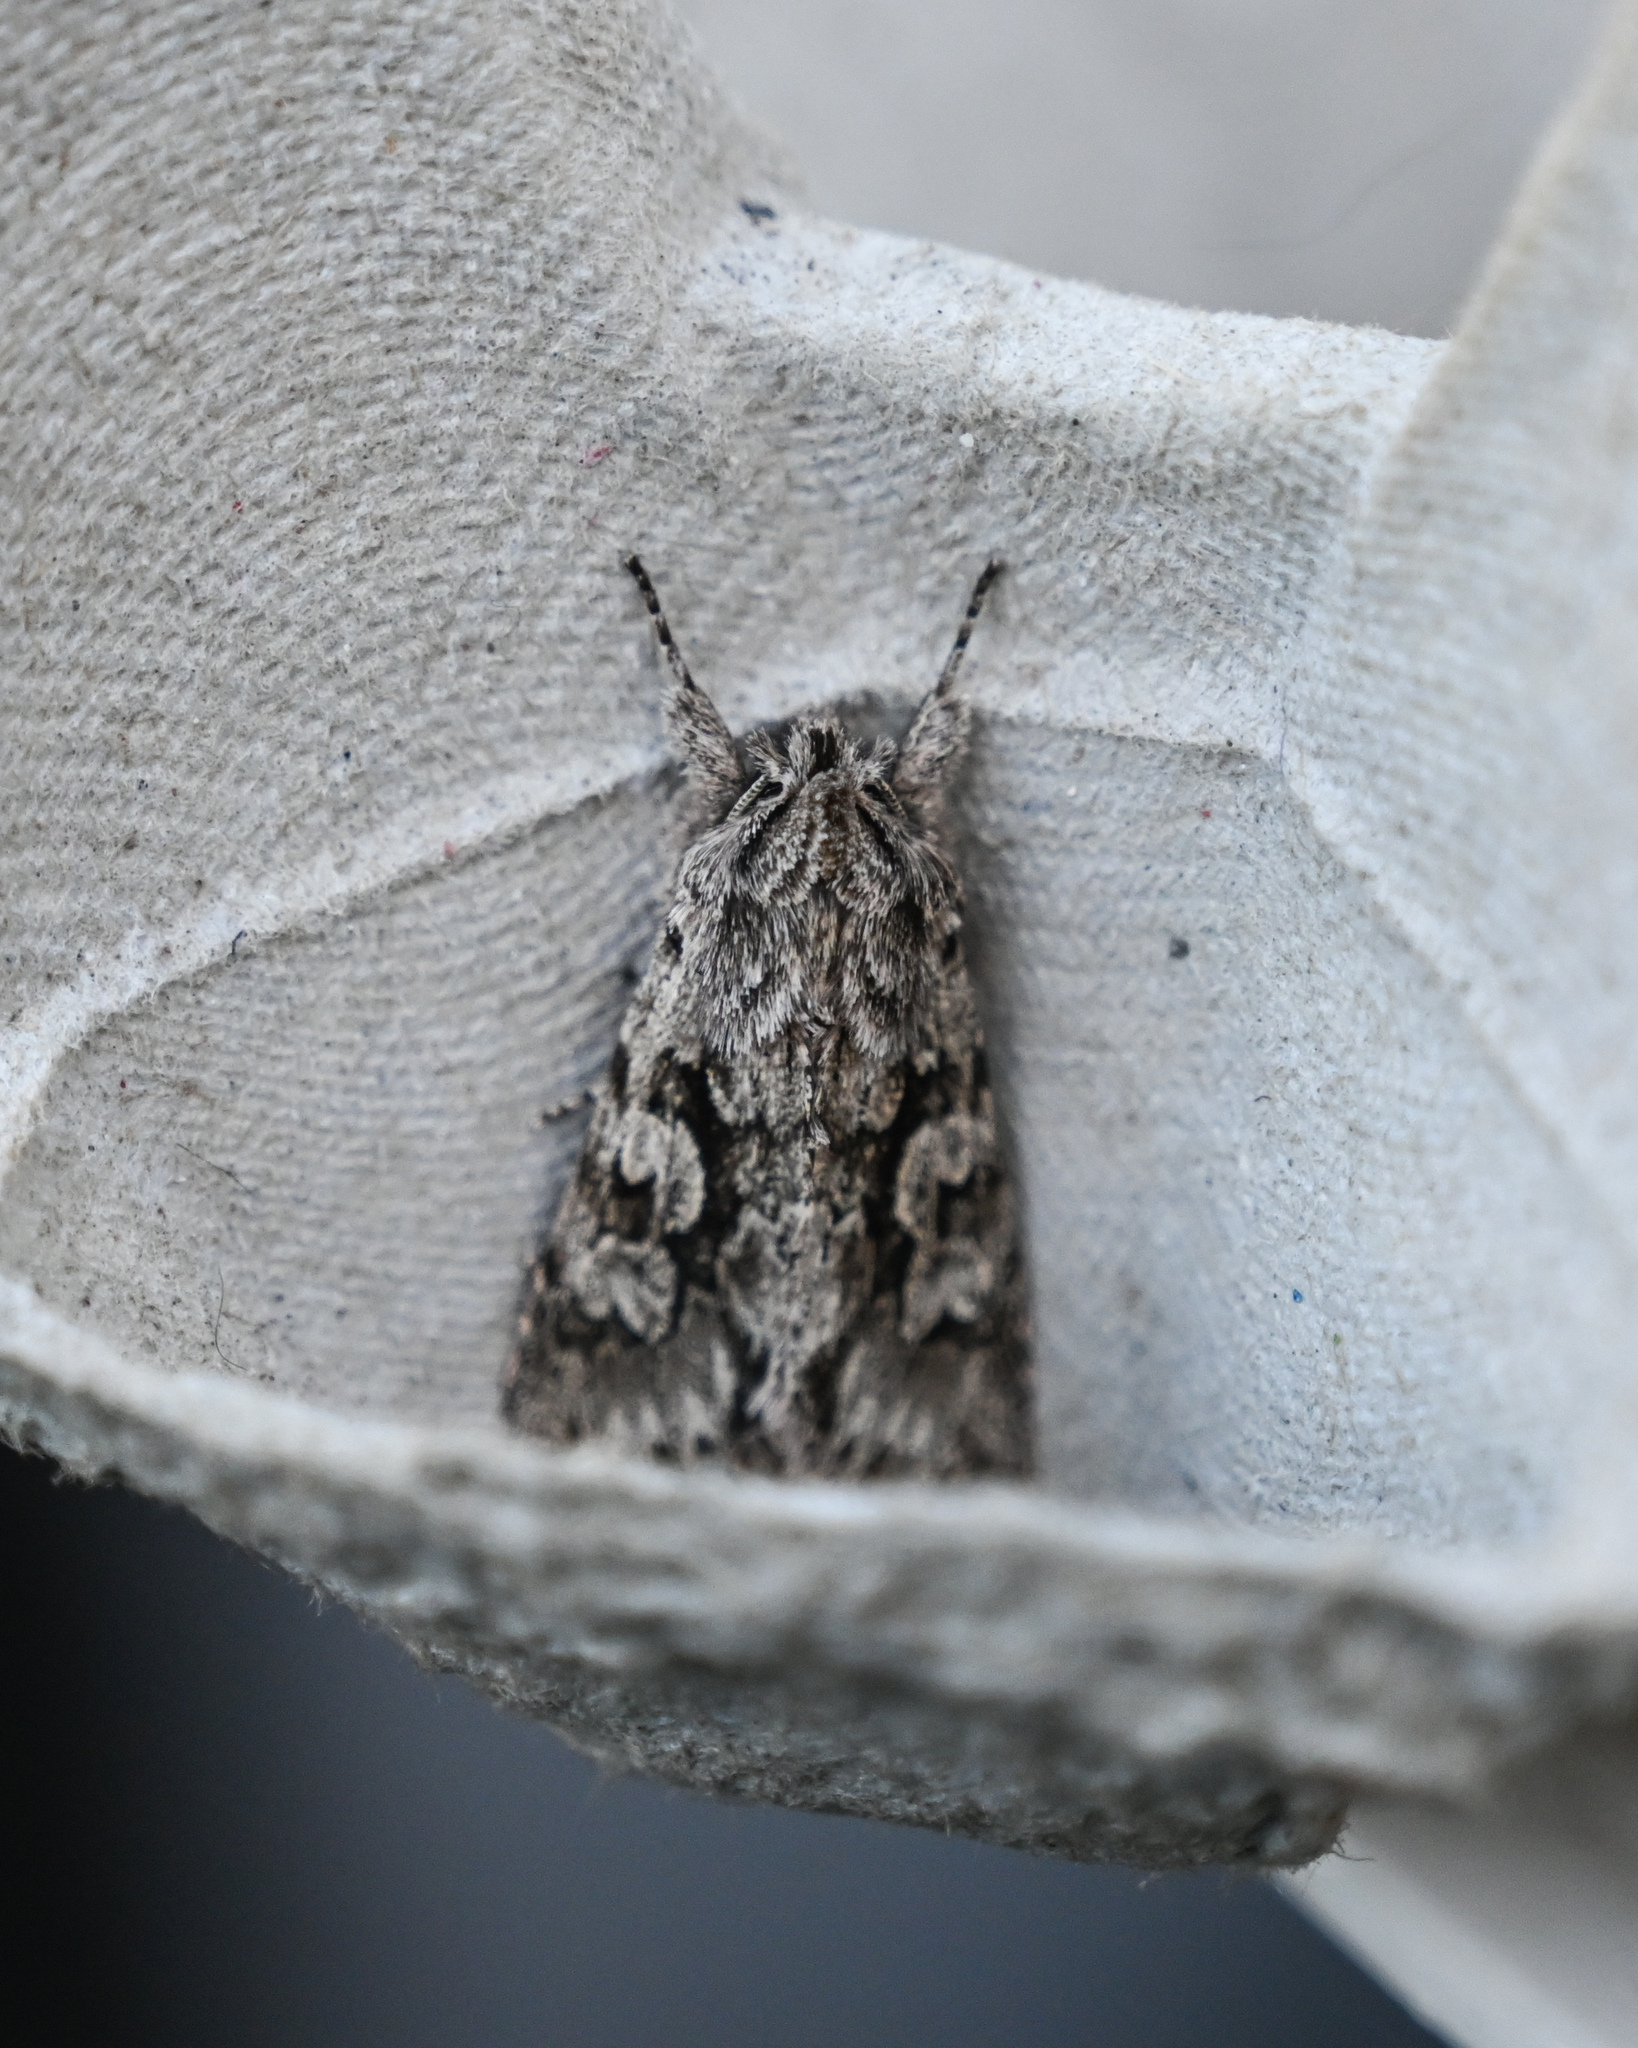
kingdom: Animalia
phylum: Arthropoda
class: Insecta
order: Lepidoptera
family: Noctuidae
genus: Xylocampa
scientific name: Xylocampa areola
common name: Early grey
